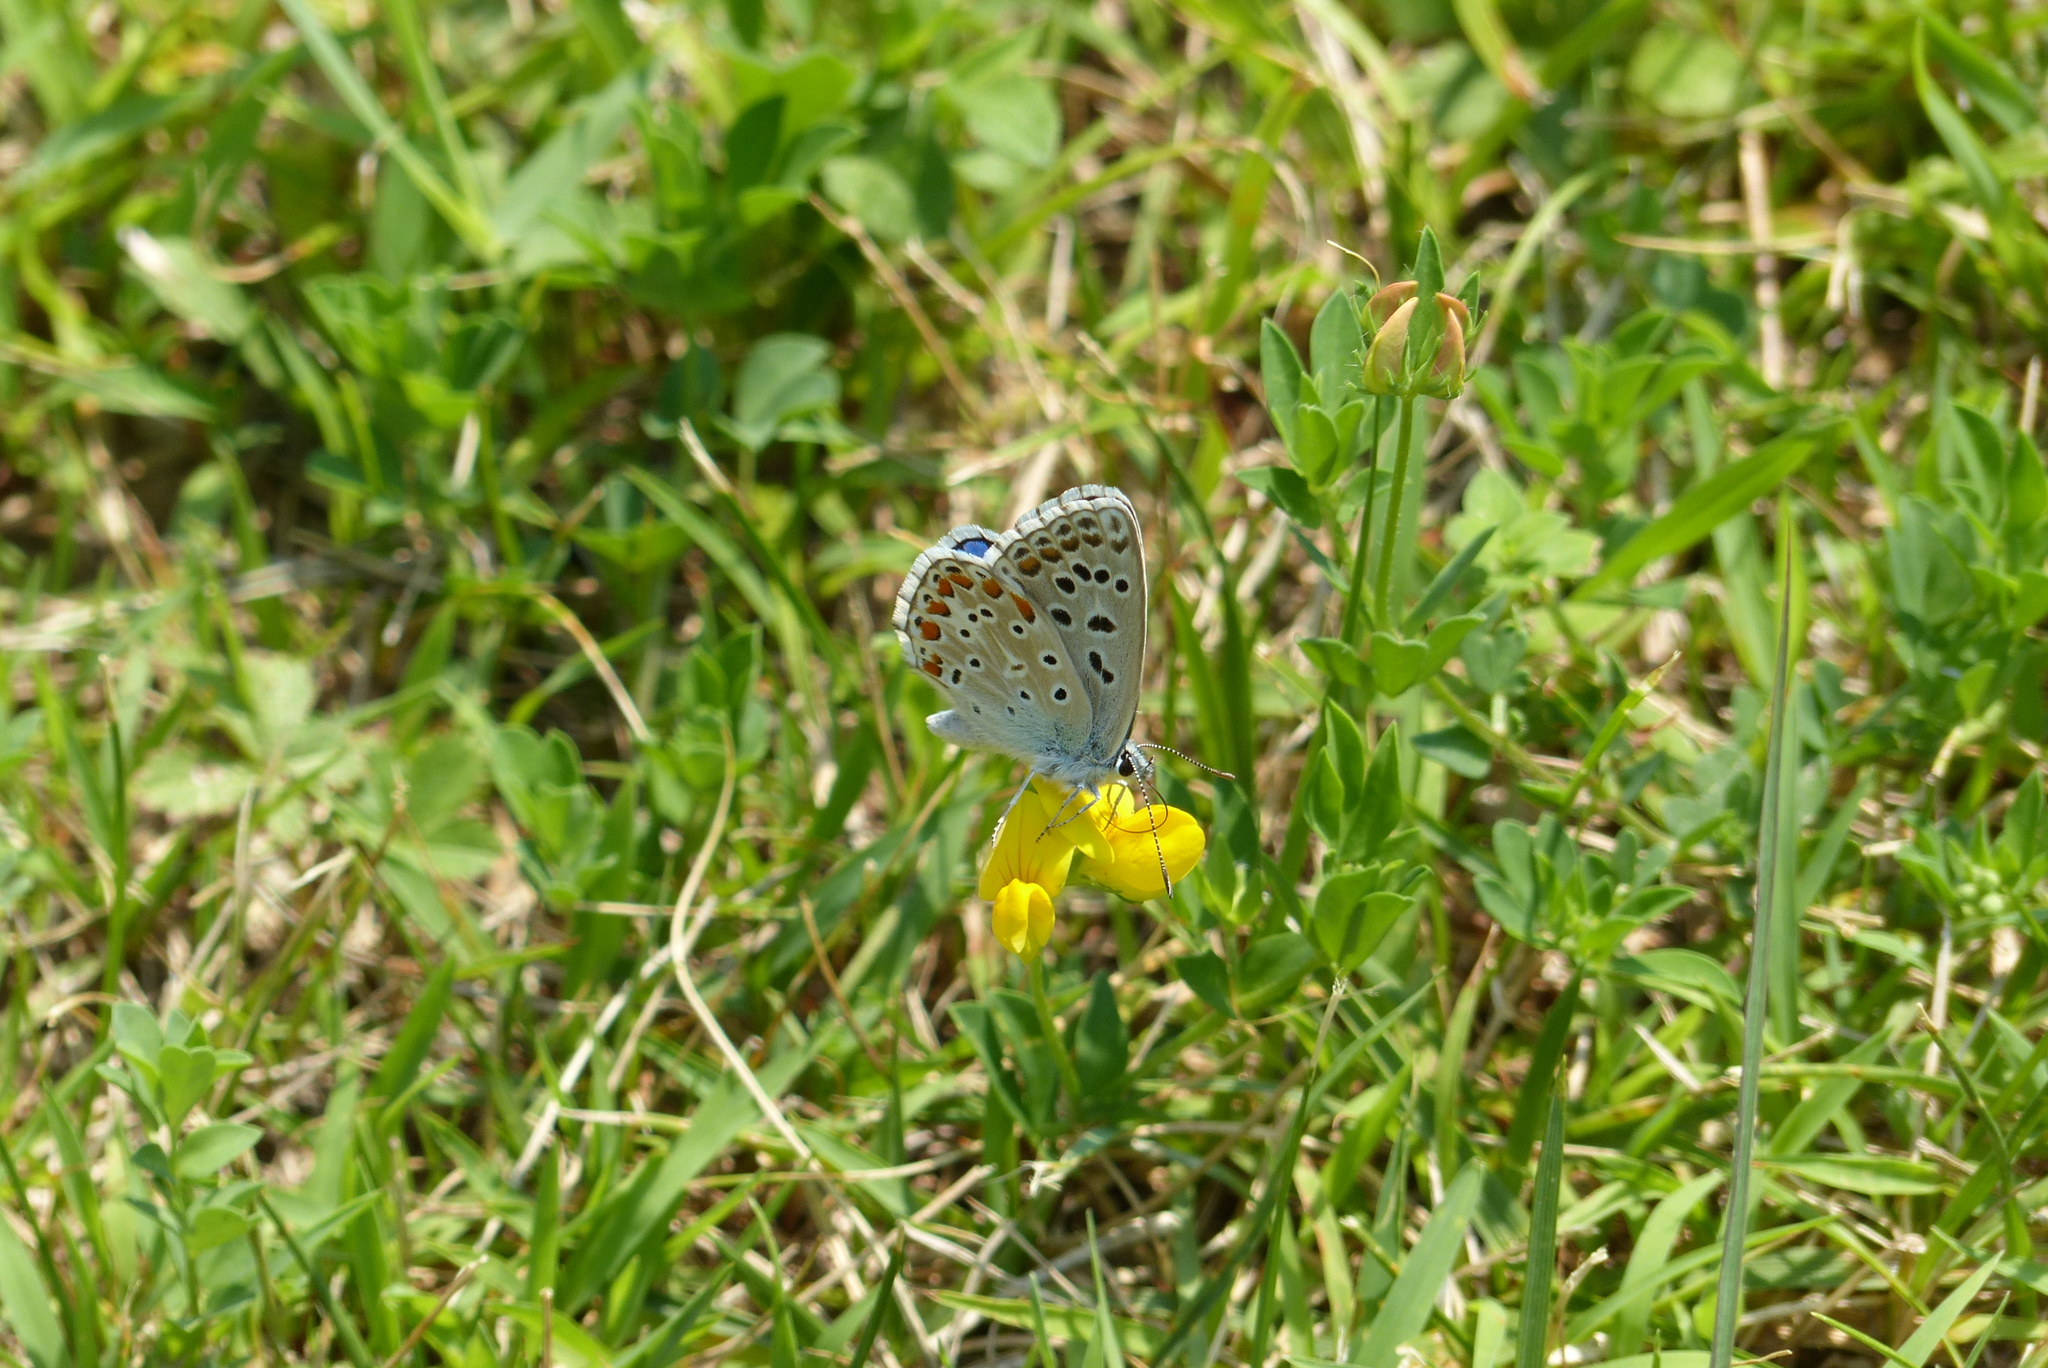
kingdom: Animalia
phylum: Arthropoda
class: Insecta
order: Lepidoptera
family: Lycaenidae
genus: Lysandra
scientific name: Lysandra bellargus
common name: Adonis blue
